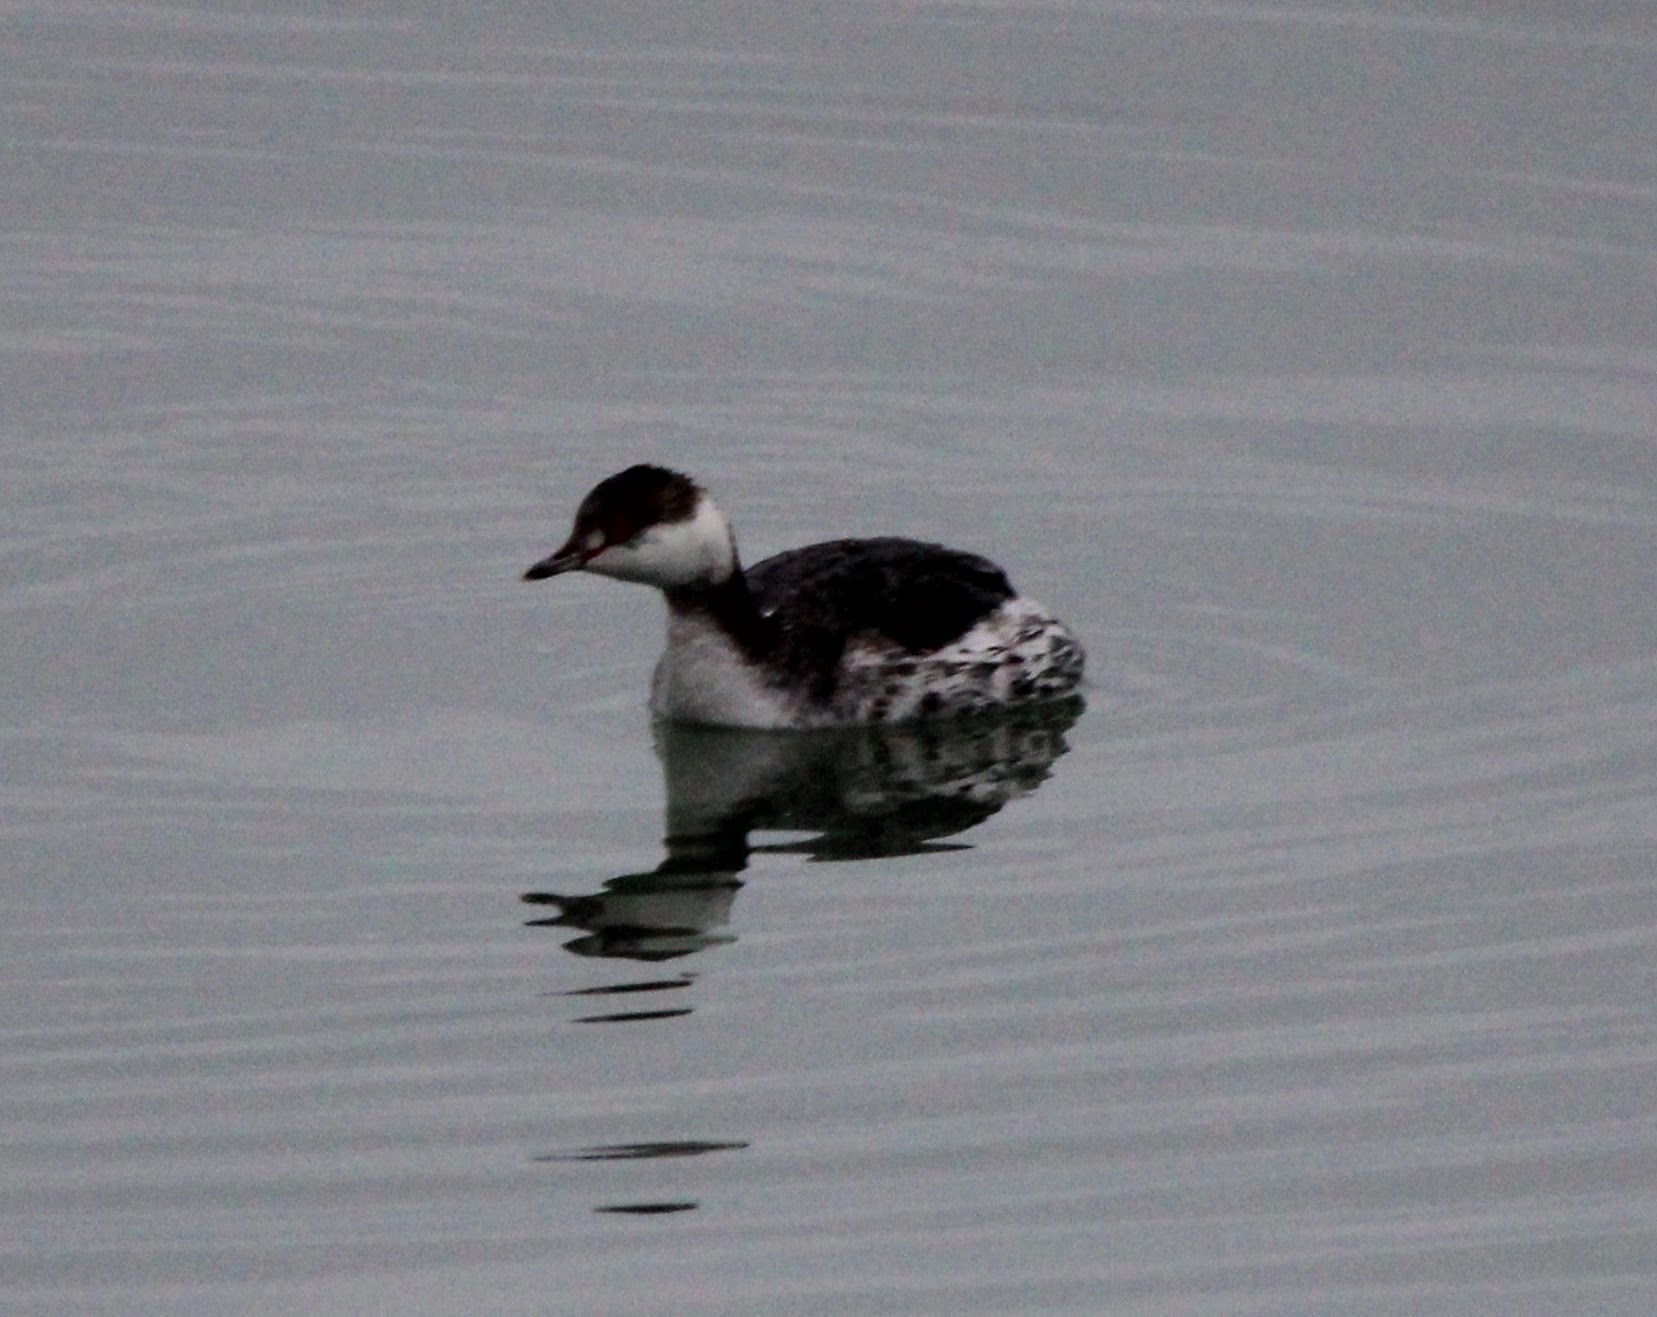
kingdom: Animalia
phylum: Chordata
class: Aves
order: Podicipediformes
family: Podicipedidae
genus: Podiceps
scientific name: Podiceps auritus
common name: Horned grebe
